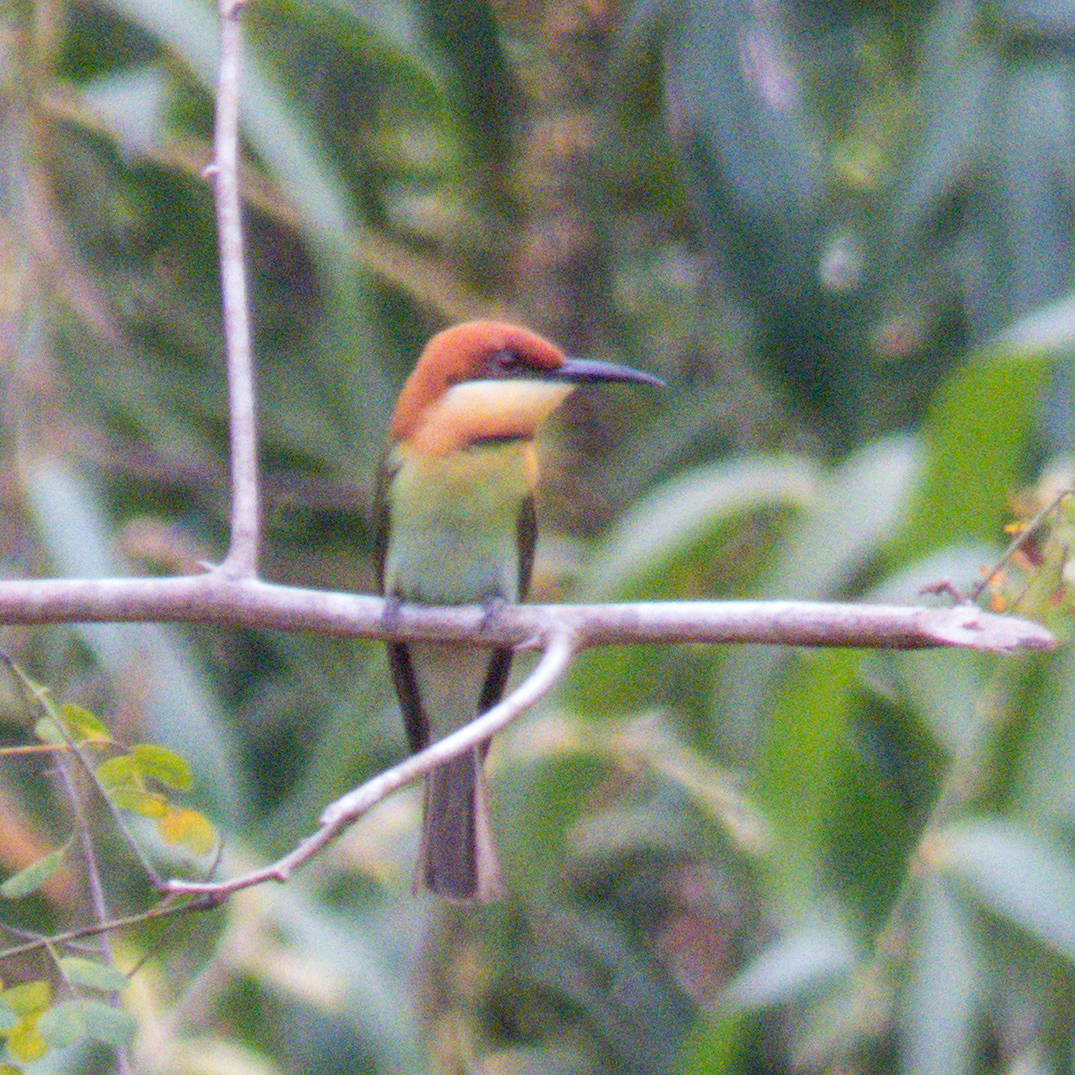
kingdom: Animalia
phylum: Chordata
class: Aves
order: Coraciiformes
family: Meropidae
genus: Merops
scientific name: Merops leschenaulti
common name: Chestnut-headed bee-eater
